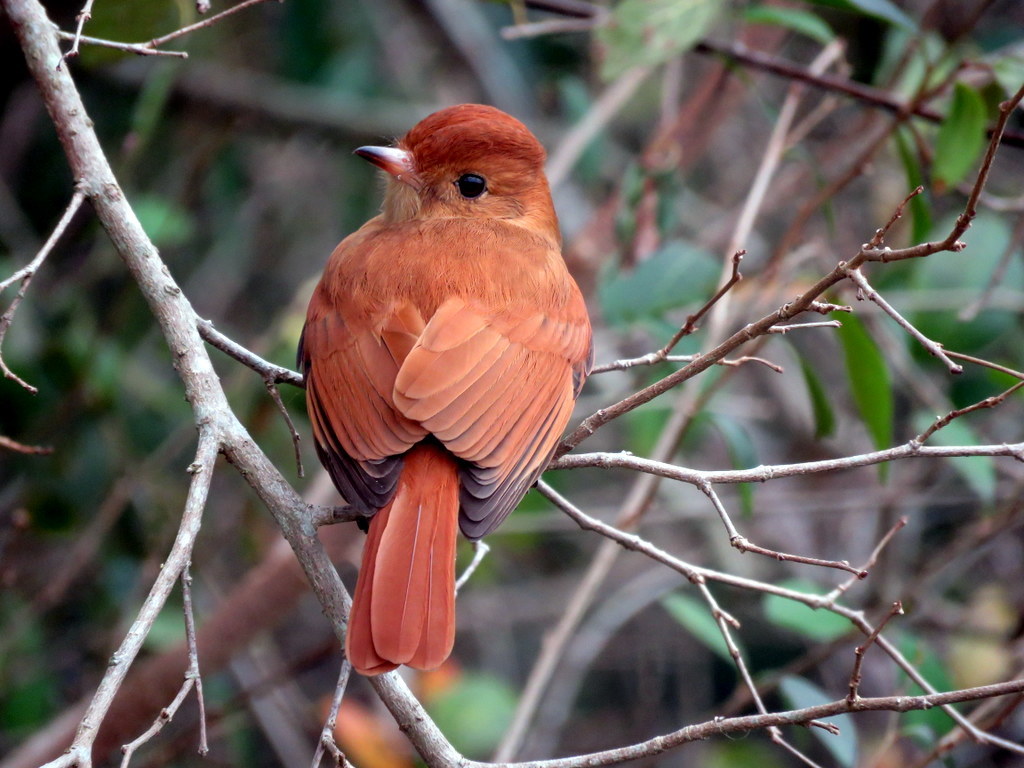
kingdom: Animalia
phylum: Chordata
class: Aves
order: Passeriformes
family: Tyrannidae
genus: Casiornis
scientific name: Casiornis rufus
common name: Rufous casiornis
